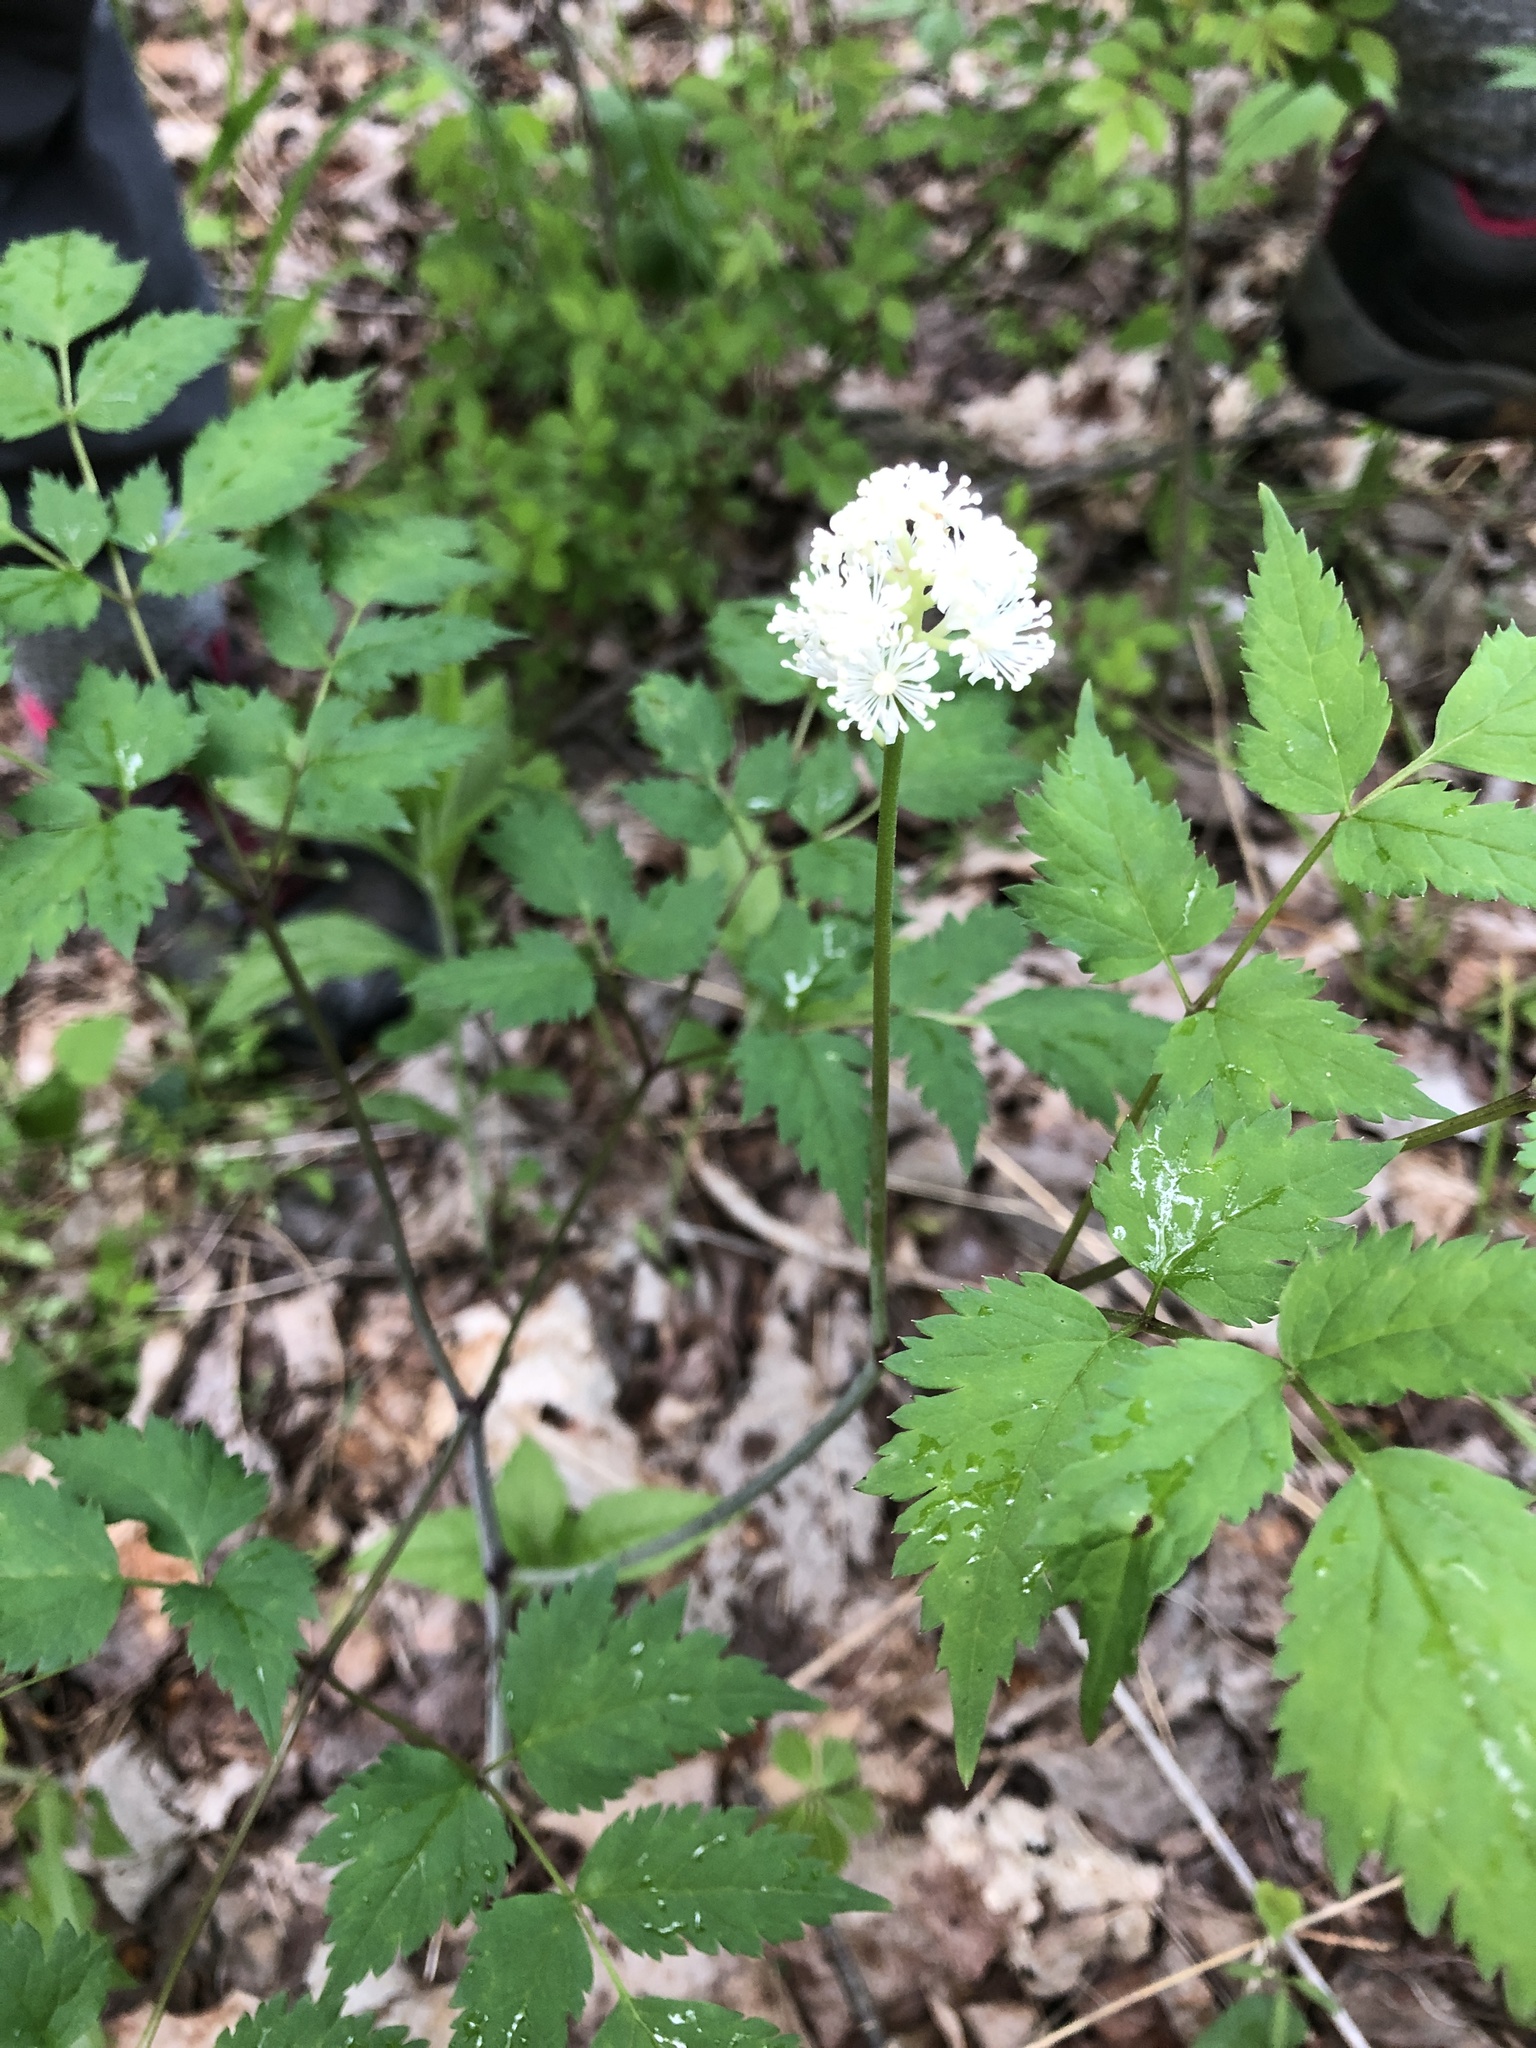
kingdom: Plantae
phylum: Tracheophyta
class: Magnoliopsida
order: Ranunculales
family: Ranunculaceae
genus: Actaea
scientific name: Actaea pachypoda
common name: Doll's-eyes
